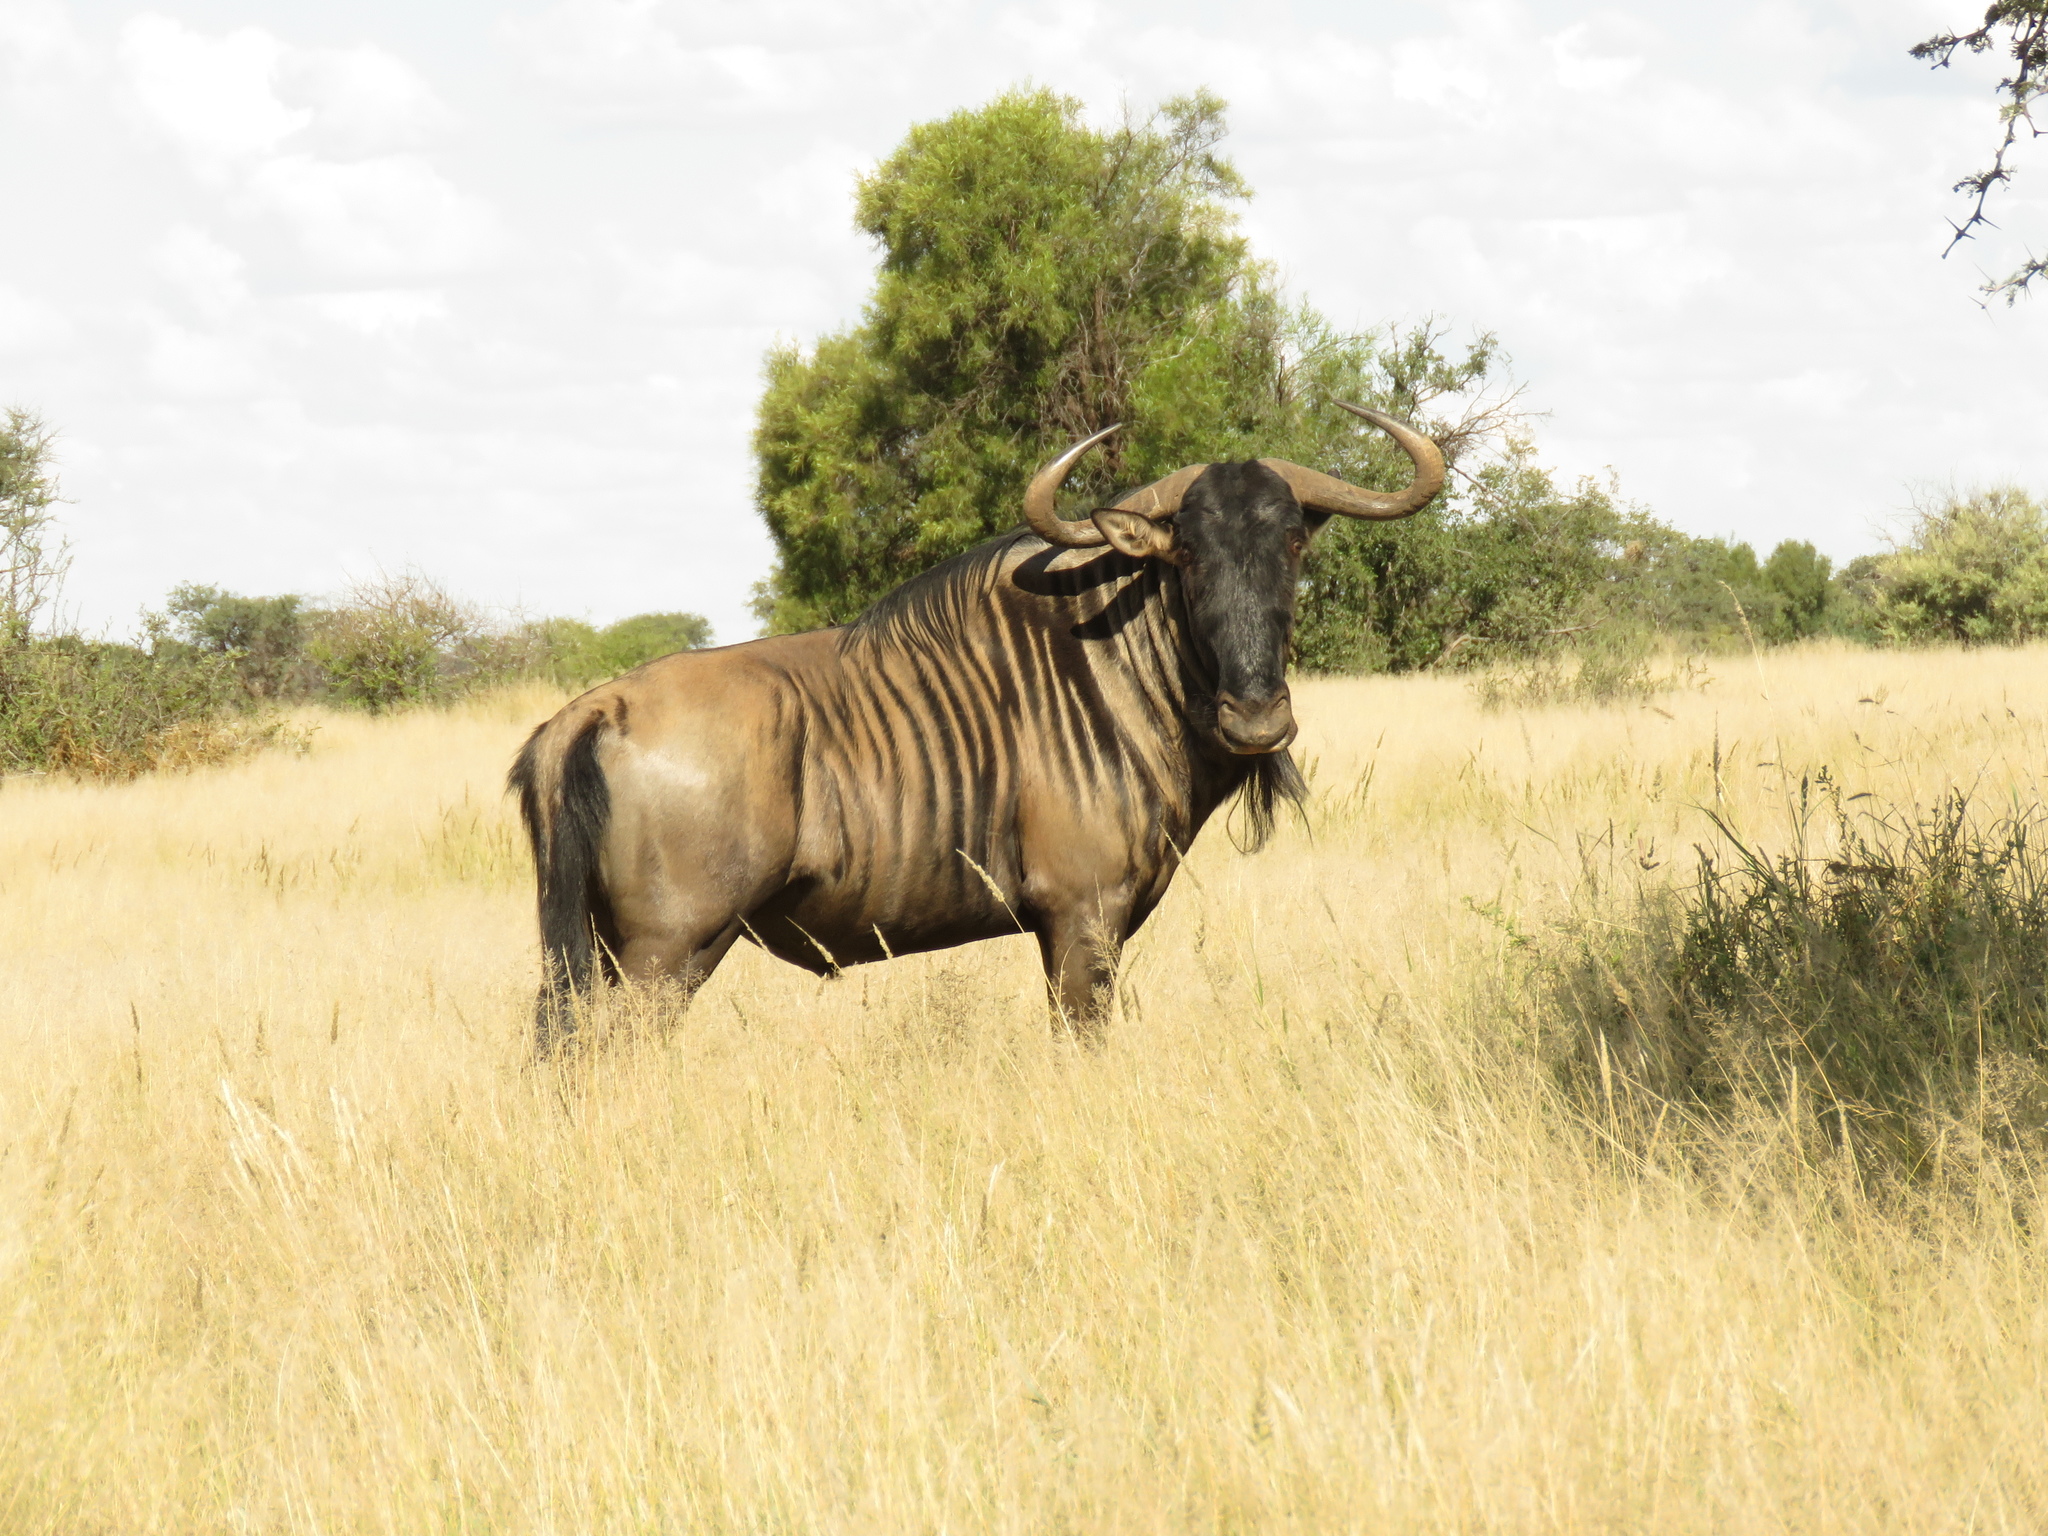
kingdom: Animalia
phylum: Chordata
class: Mammalia
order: Artiodactyla
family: Bovidae
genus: Connochaetes
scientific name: Connochaetes taurinus
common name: Blue wildebeest
